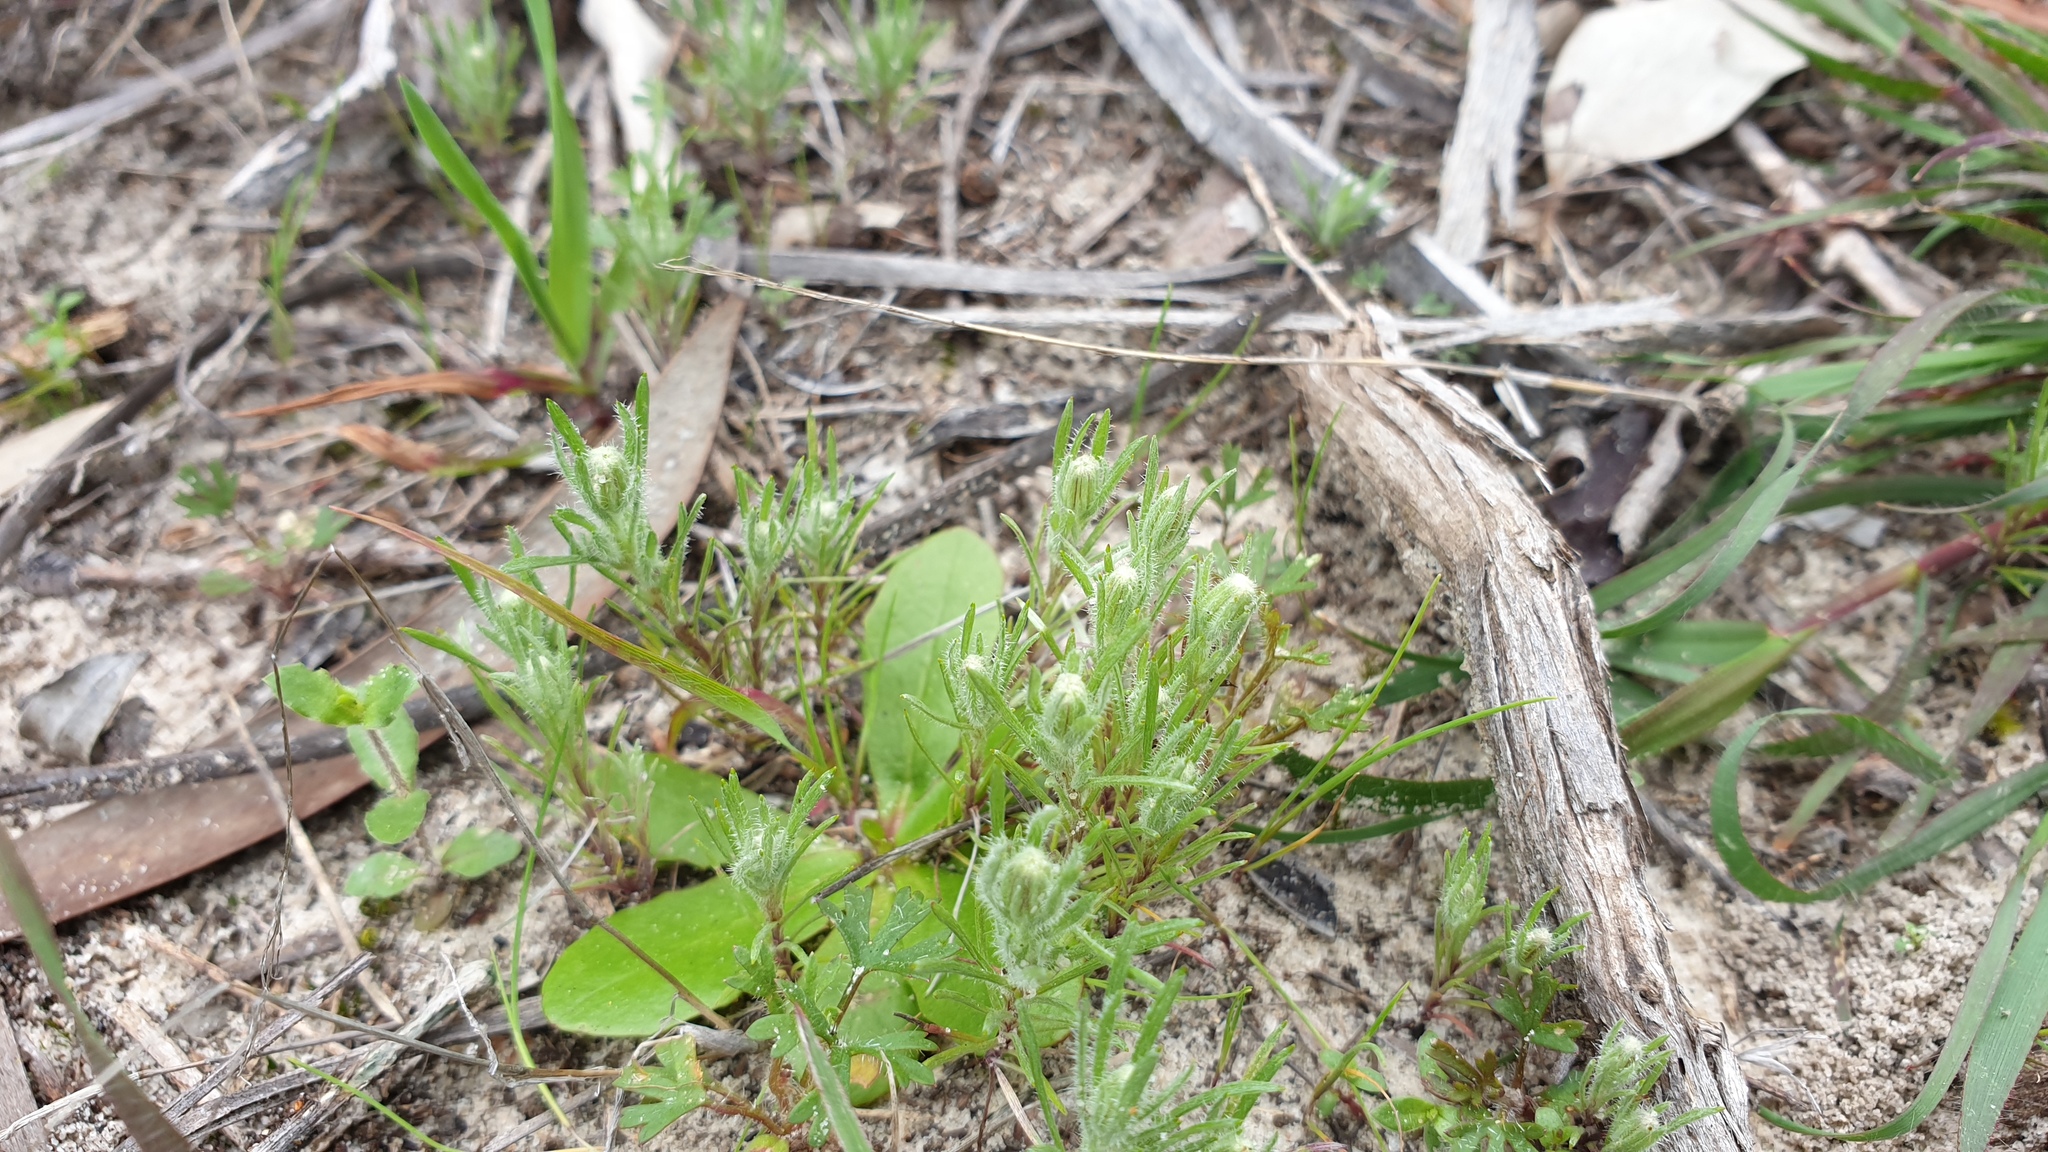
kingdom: Plantae
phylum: Tracheophyta
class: Magnoliopsida
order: Asterales
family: Asteraceae
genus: Millotia
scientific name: Millotia tenuifolia
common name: Soft millotia
